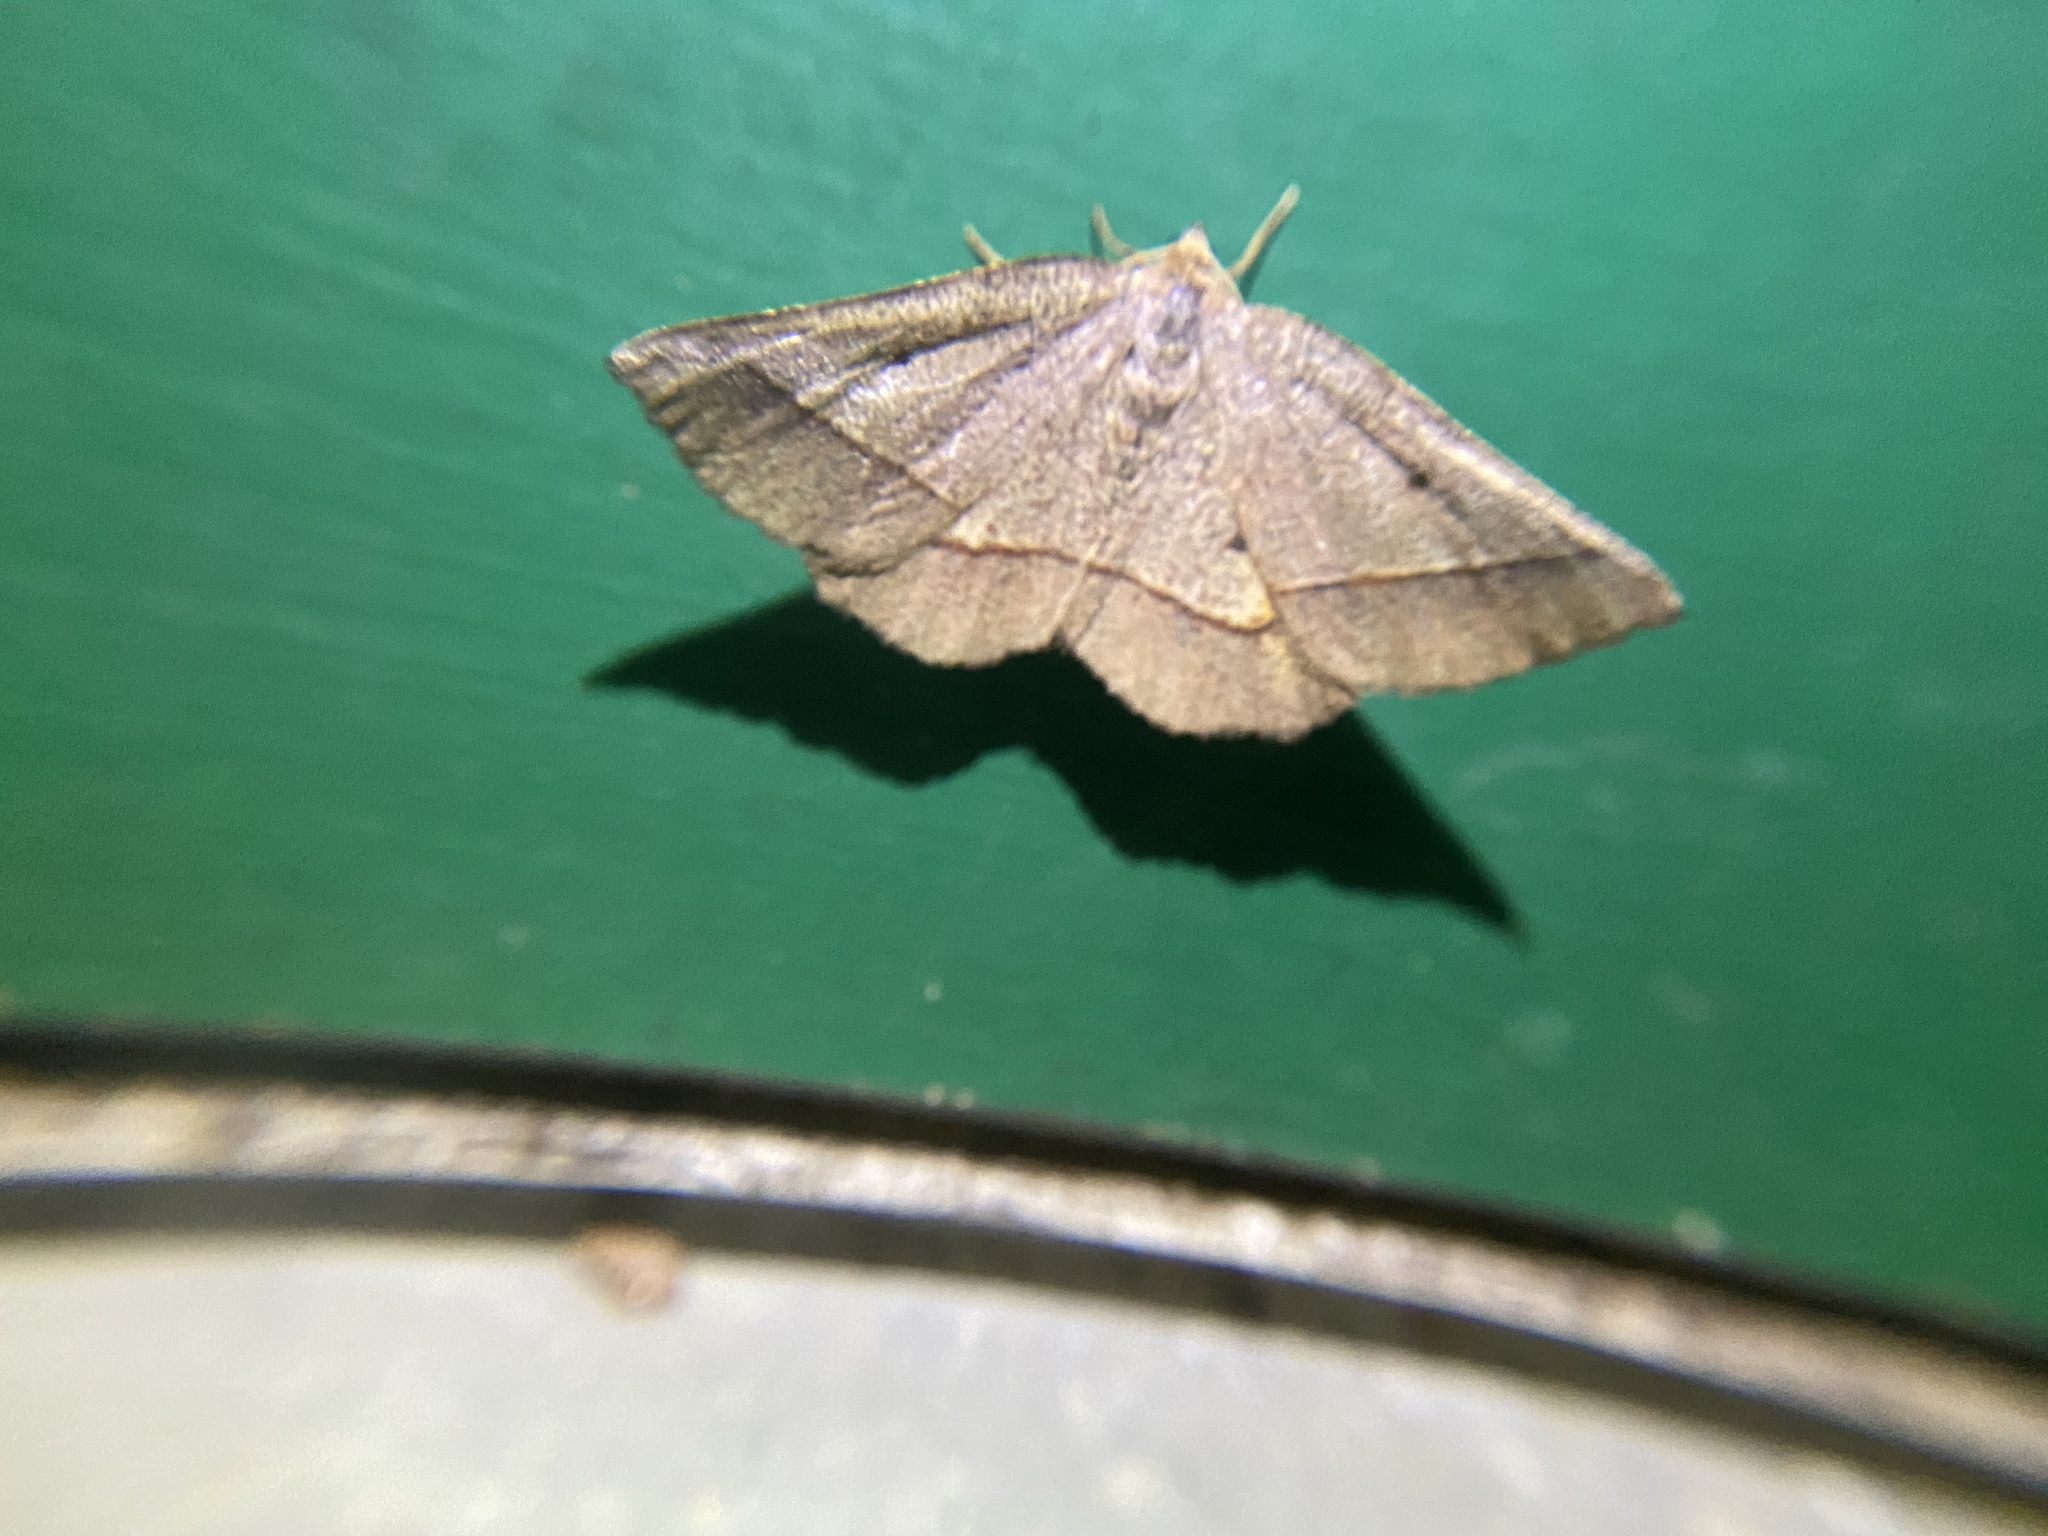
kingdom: Animalia
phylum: Arthropoda
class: Insecta
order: Lepidoptera
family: Geometridae
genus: Metarranthis
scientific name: Metarranthis obfirmaria
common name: Yellow-washed metarranthis
